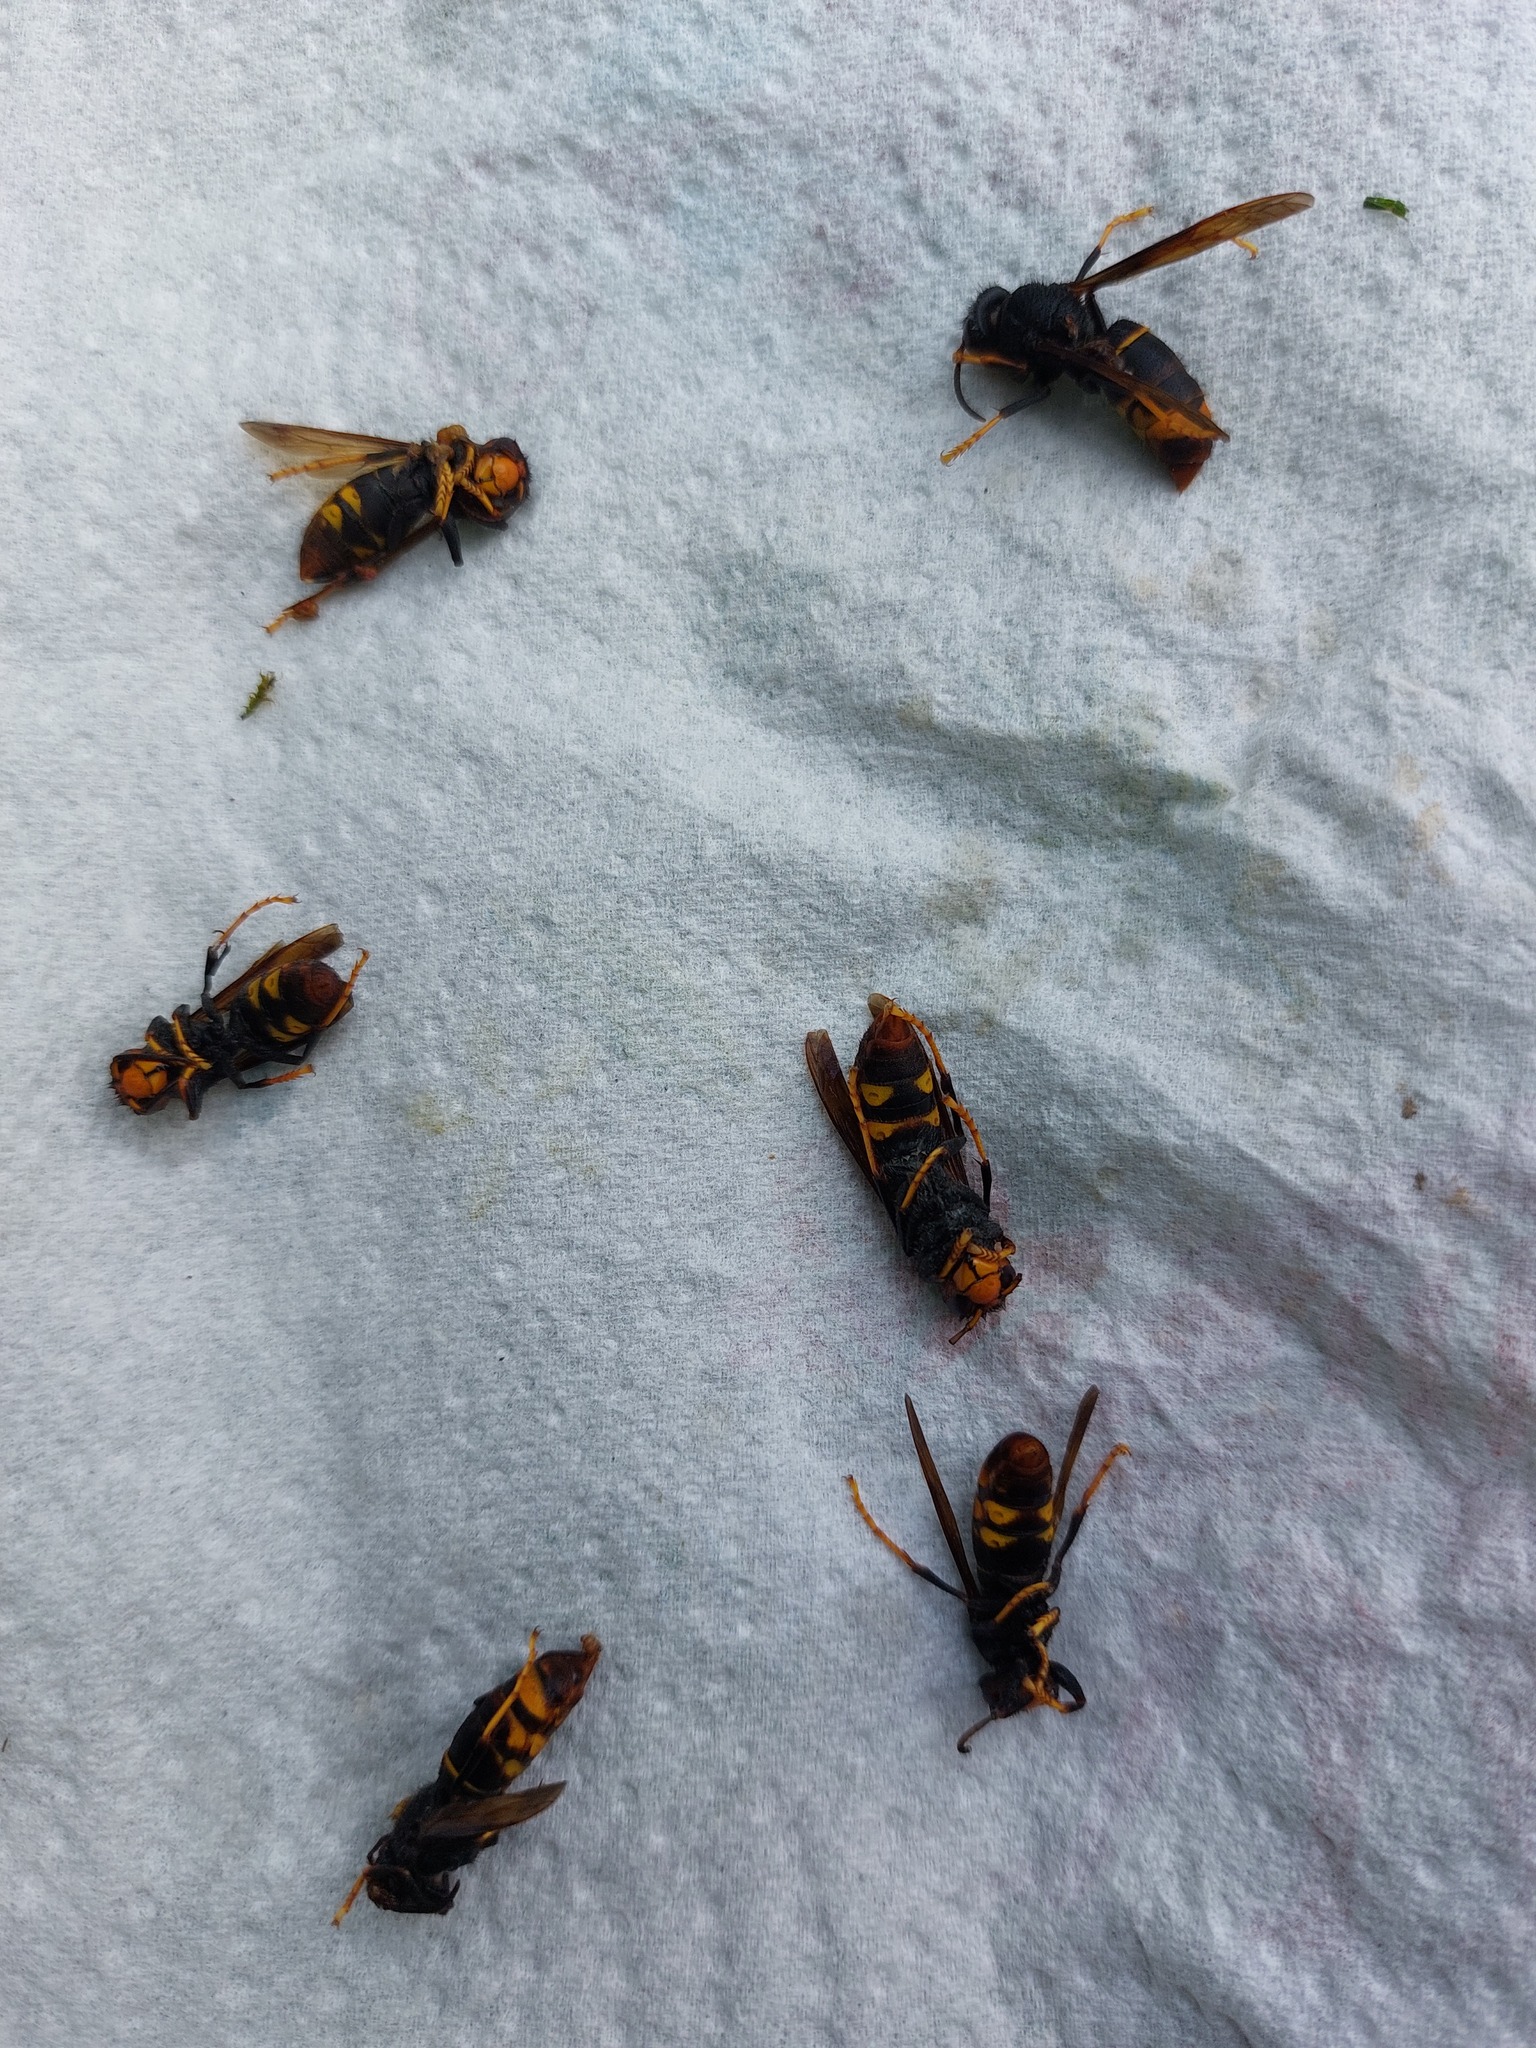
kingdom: Animalia
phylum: Arthropoda
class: Insecta
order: Hymenoptera
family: Vespidae
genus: Vespa
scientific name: Vespa velutina
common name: Asian hornet
